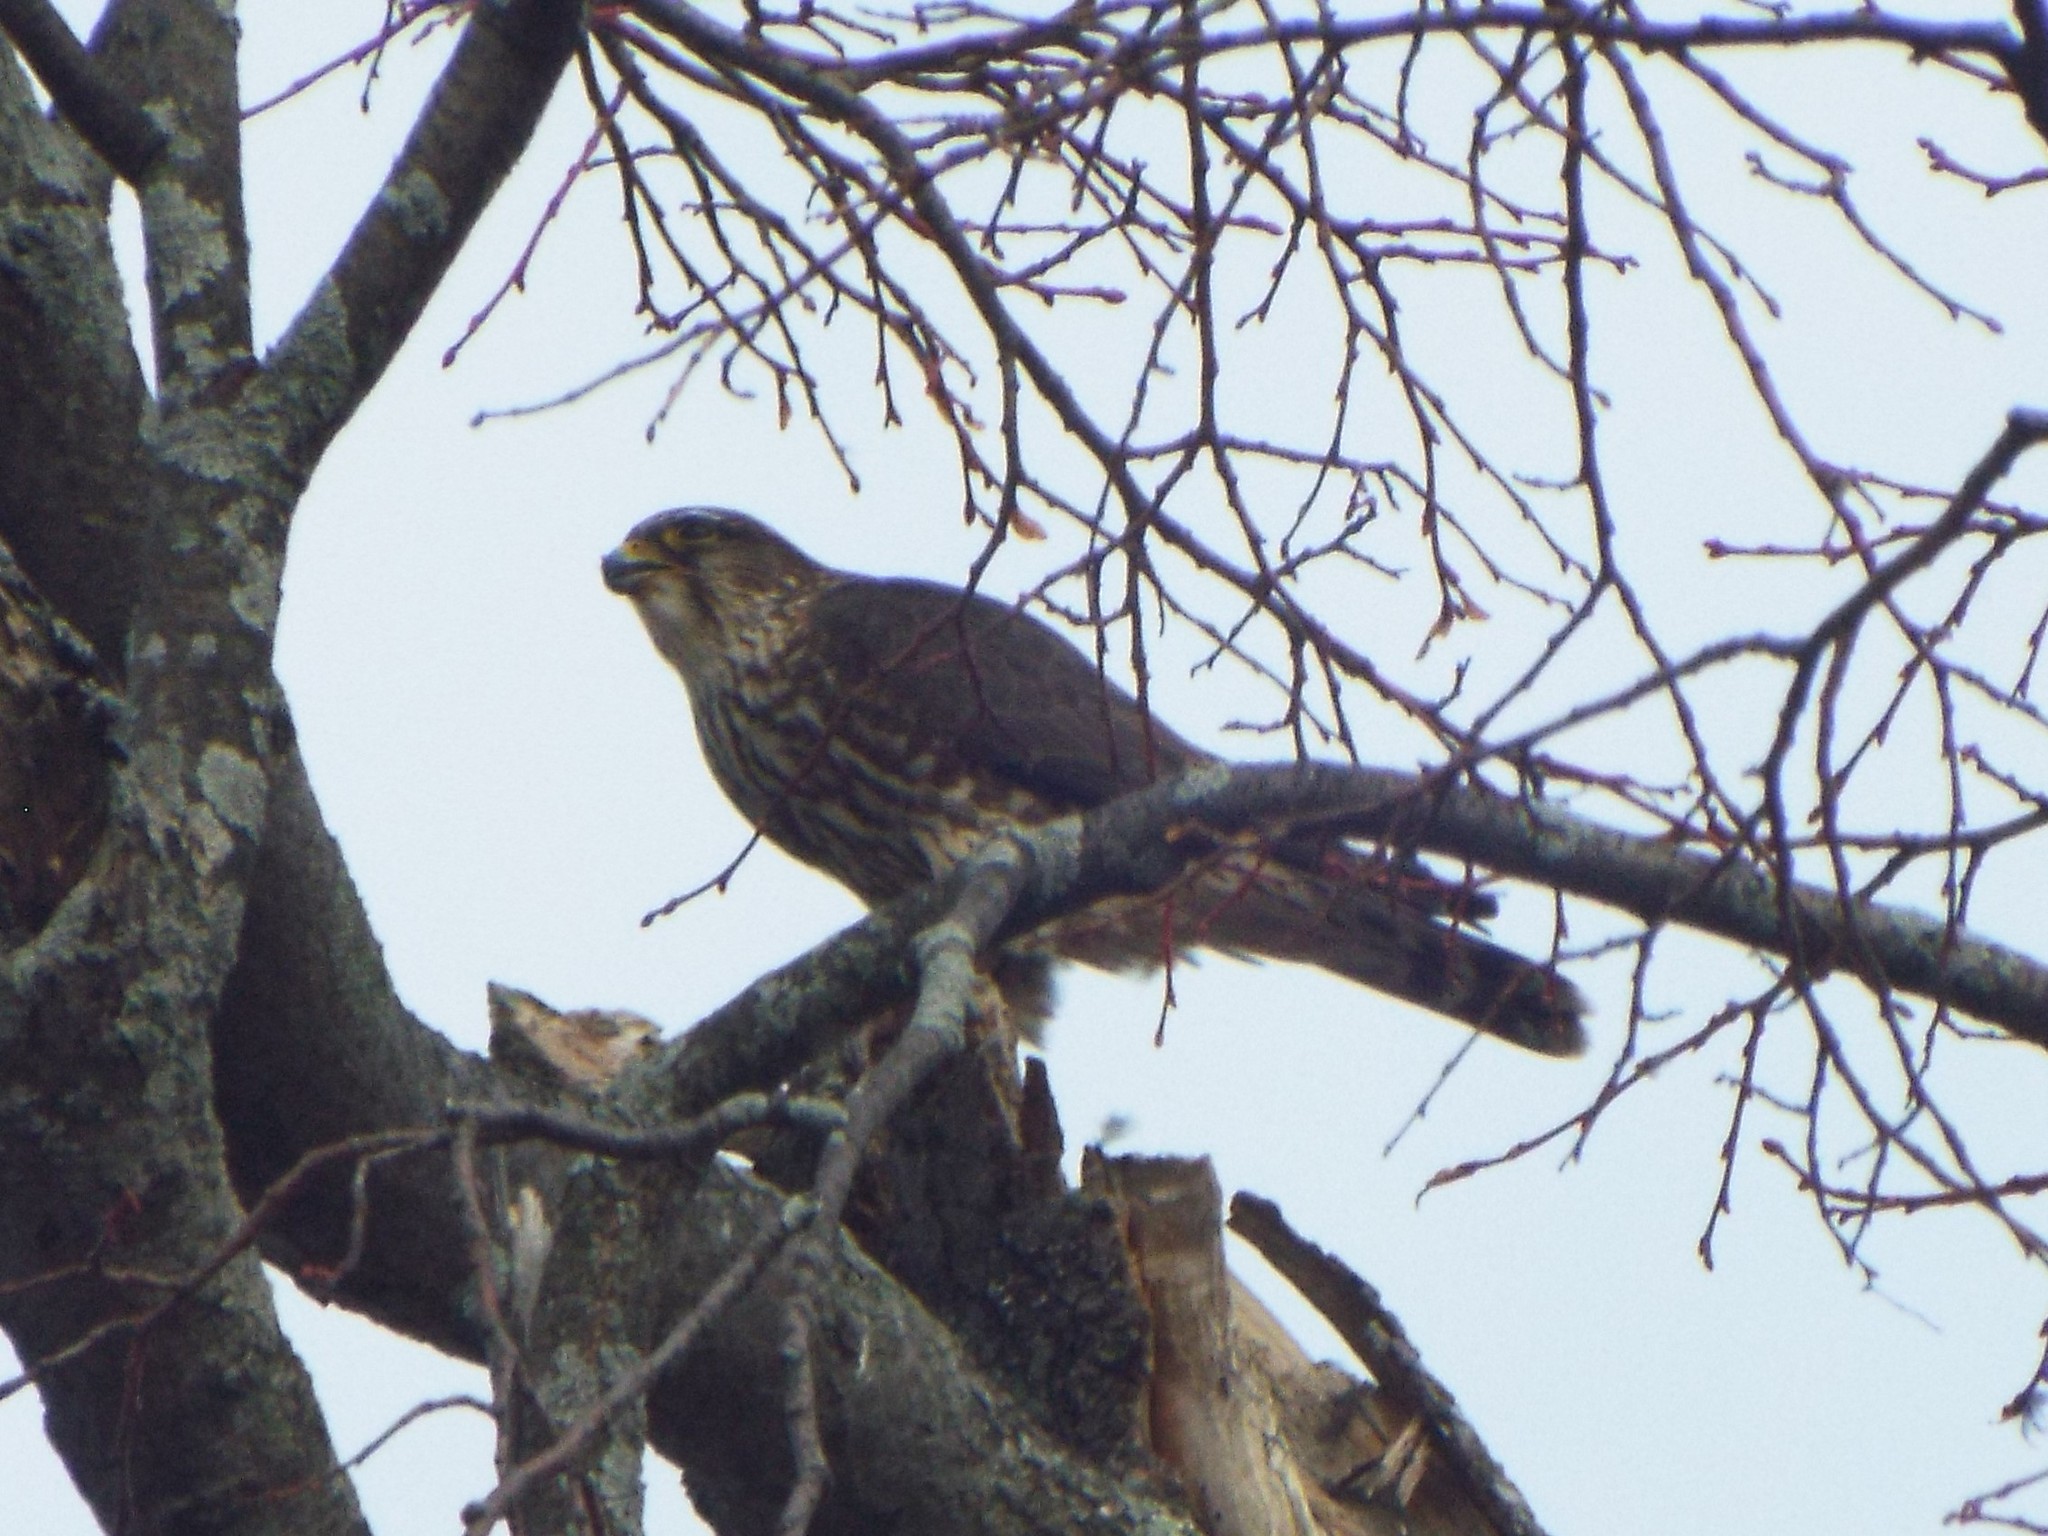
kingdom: Animalia
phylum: Chordata
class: Aves
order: Falconiformes
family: Falconidae
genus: Falco
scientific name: Falco columbarius
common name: Merlin
